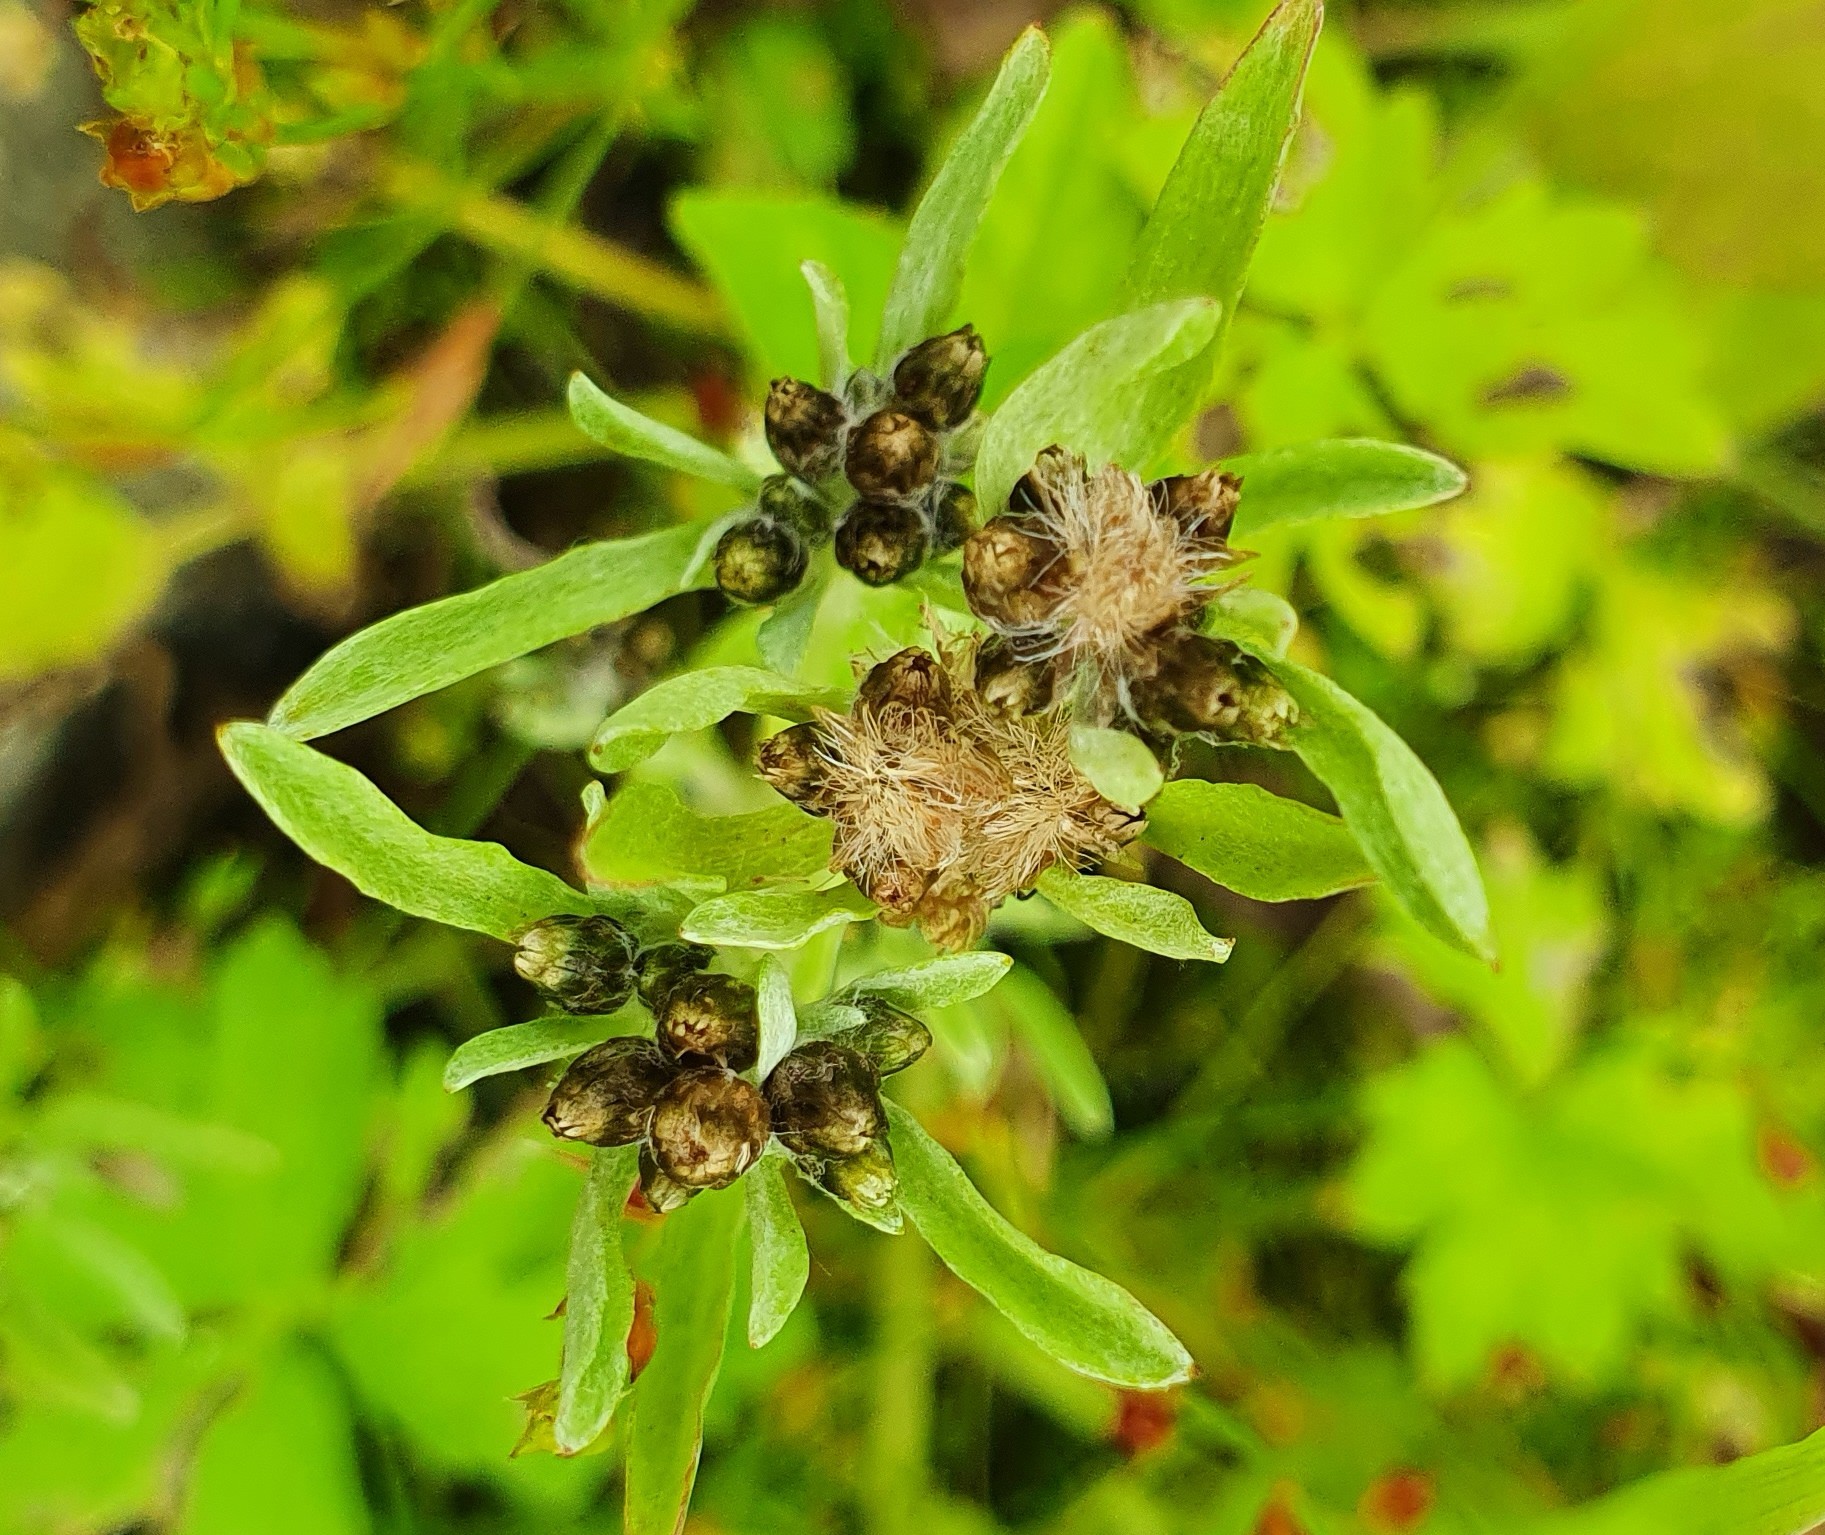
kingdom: Plantae
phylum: Tracheophyta
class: Magnoliopsida
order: Asterales
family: Asteraceae
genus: Gnaphalium
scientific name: Gnaphalium uliginosum
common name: Marsh cudweed
